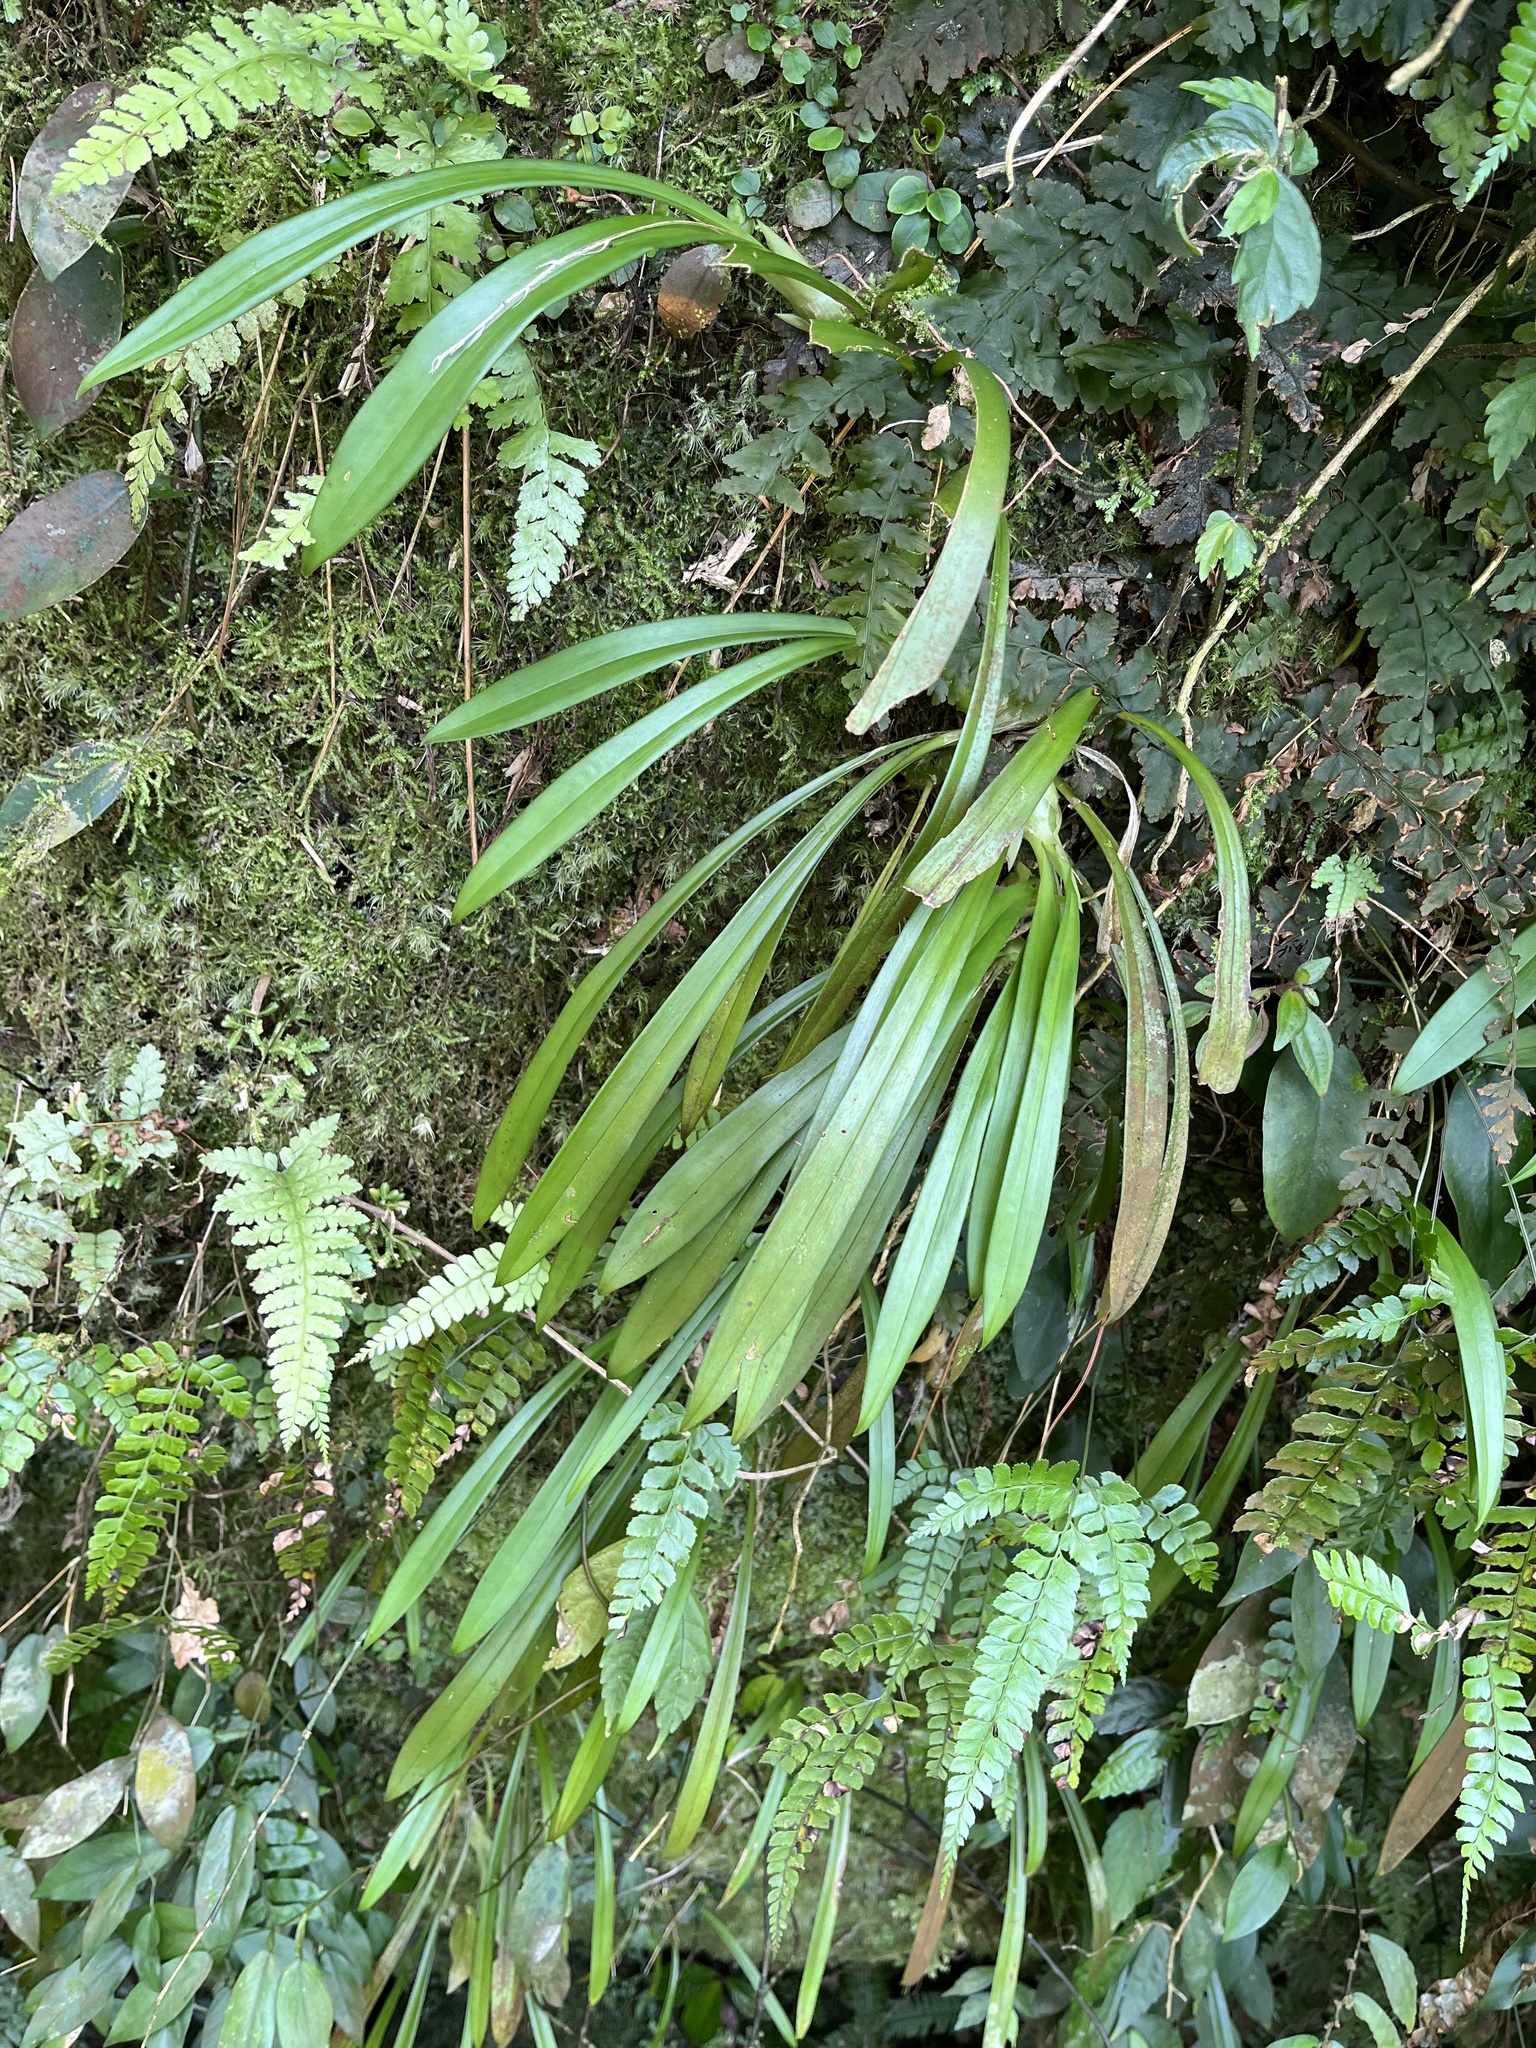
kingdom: Plantae
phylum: Tracheophyta
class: Liliopsida
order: Asparagales
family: Orchidaceae
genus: Liparis
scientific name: Liparis nakaharae
